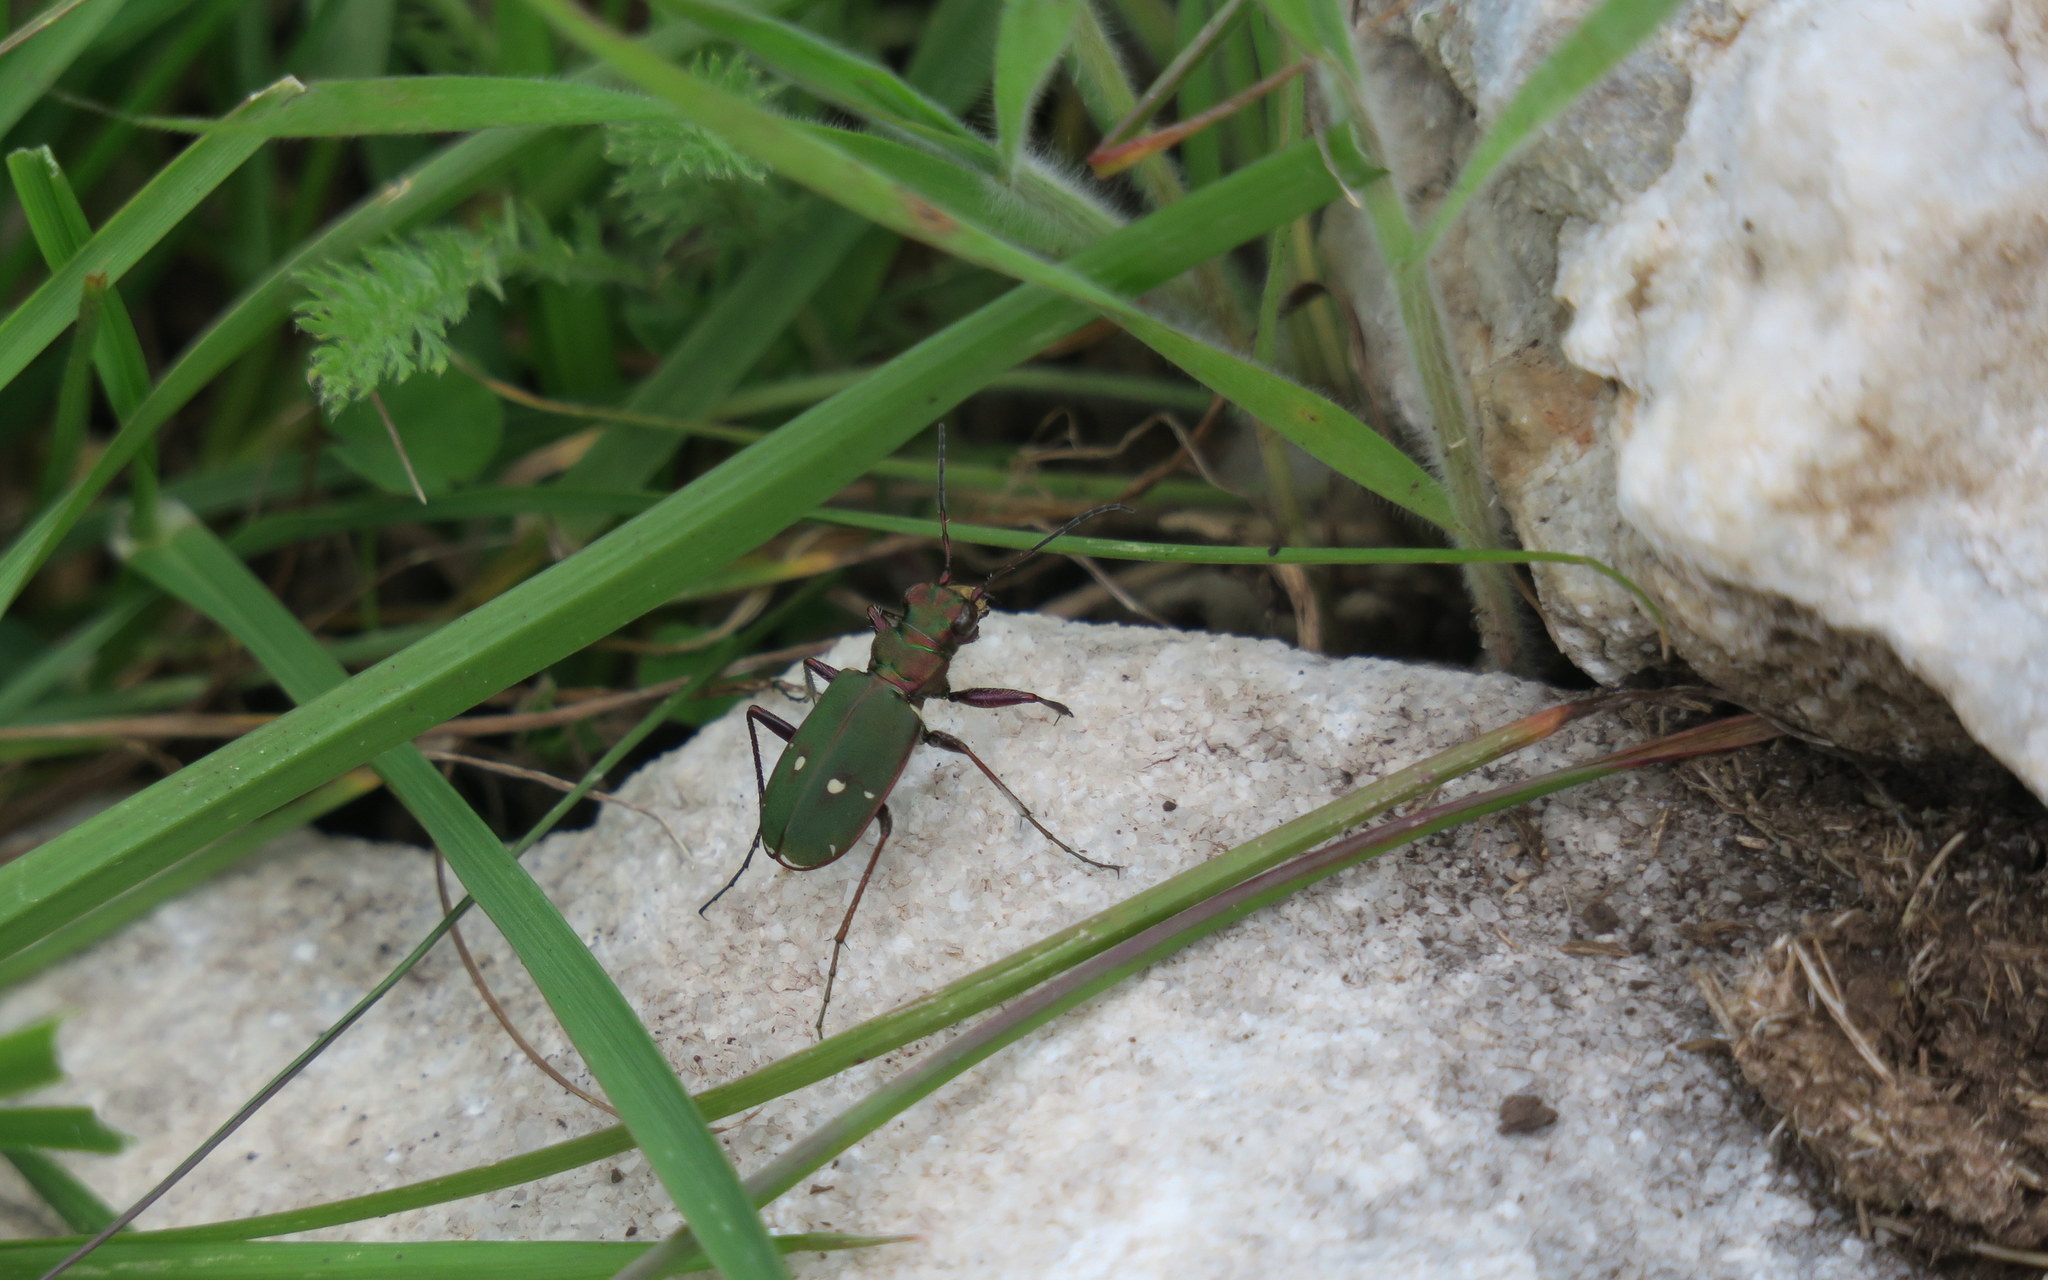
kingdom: Animalia
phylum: Arthropoda
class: Insecta
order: Coleoptera
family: Carabidae
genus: Cicindela
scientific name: Cicindela campestris
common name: Common tiger beetle
